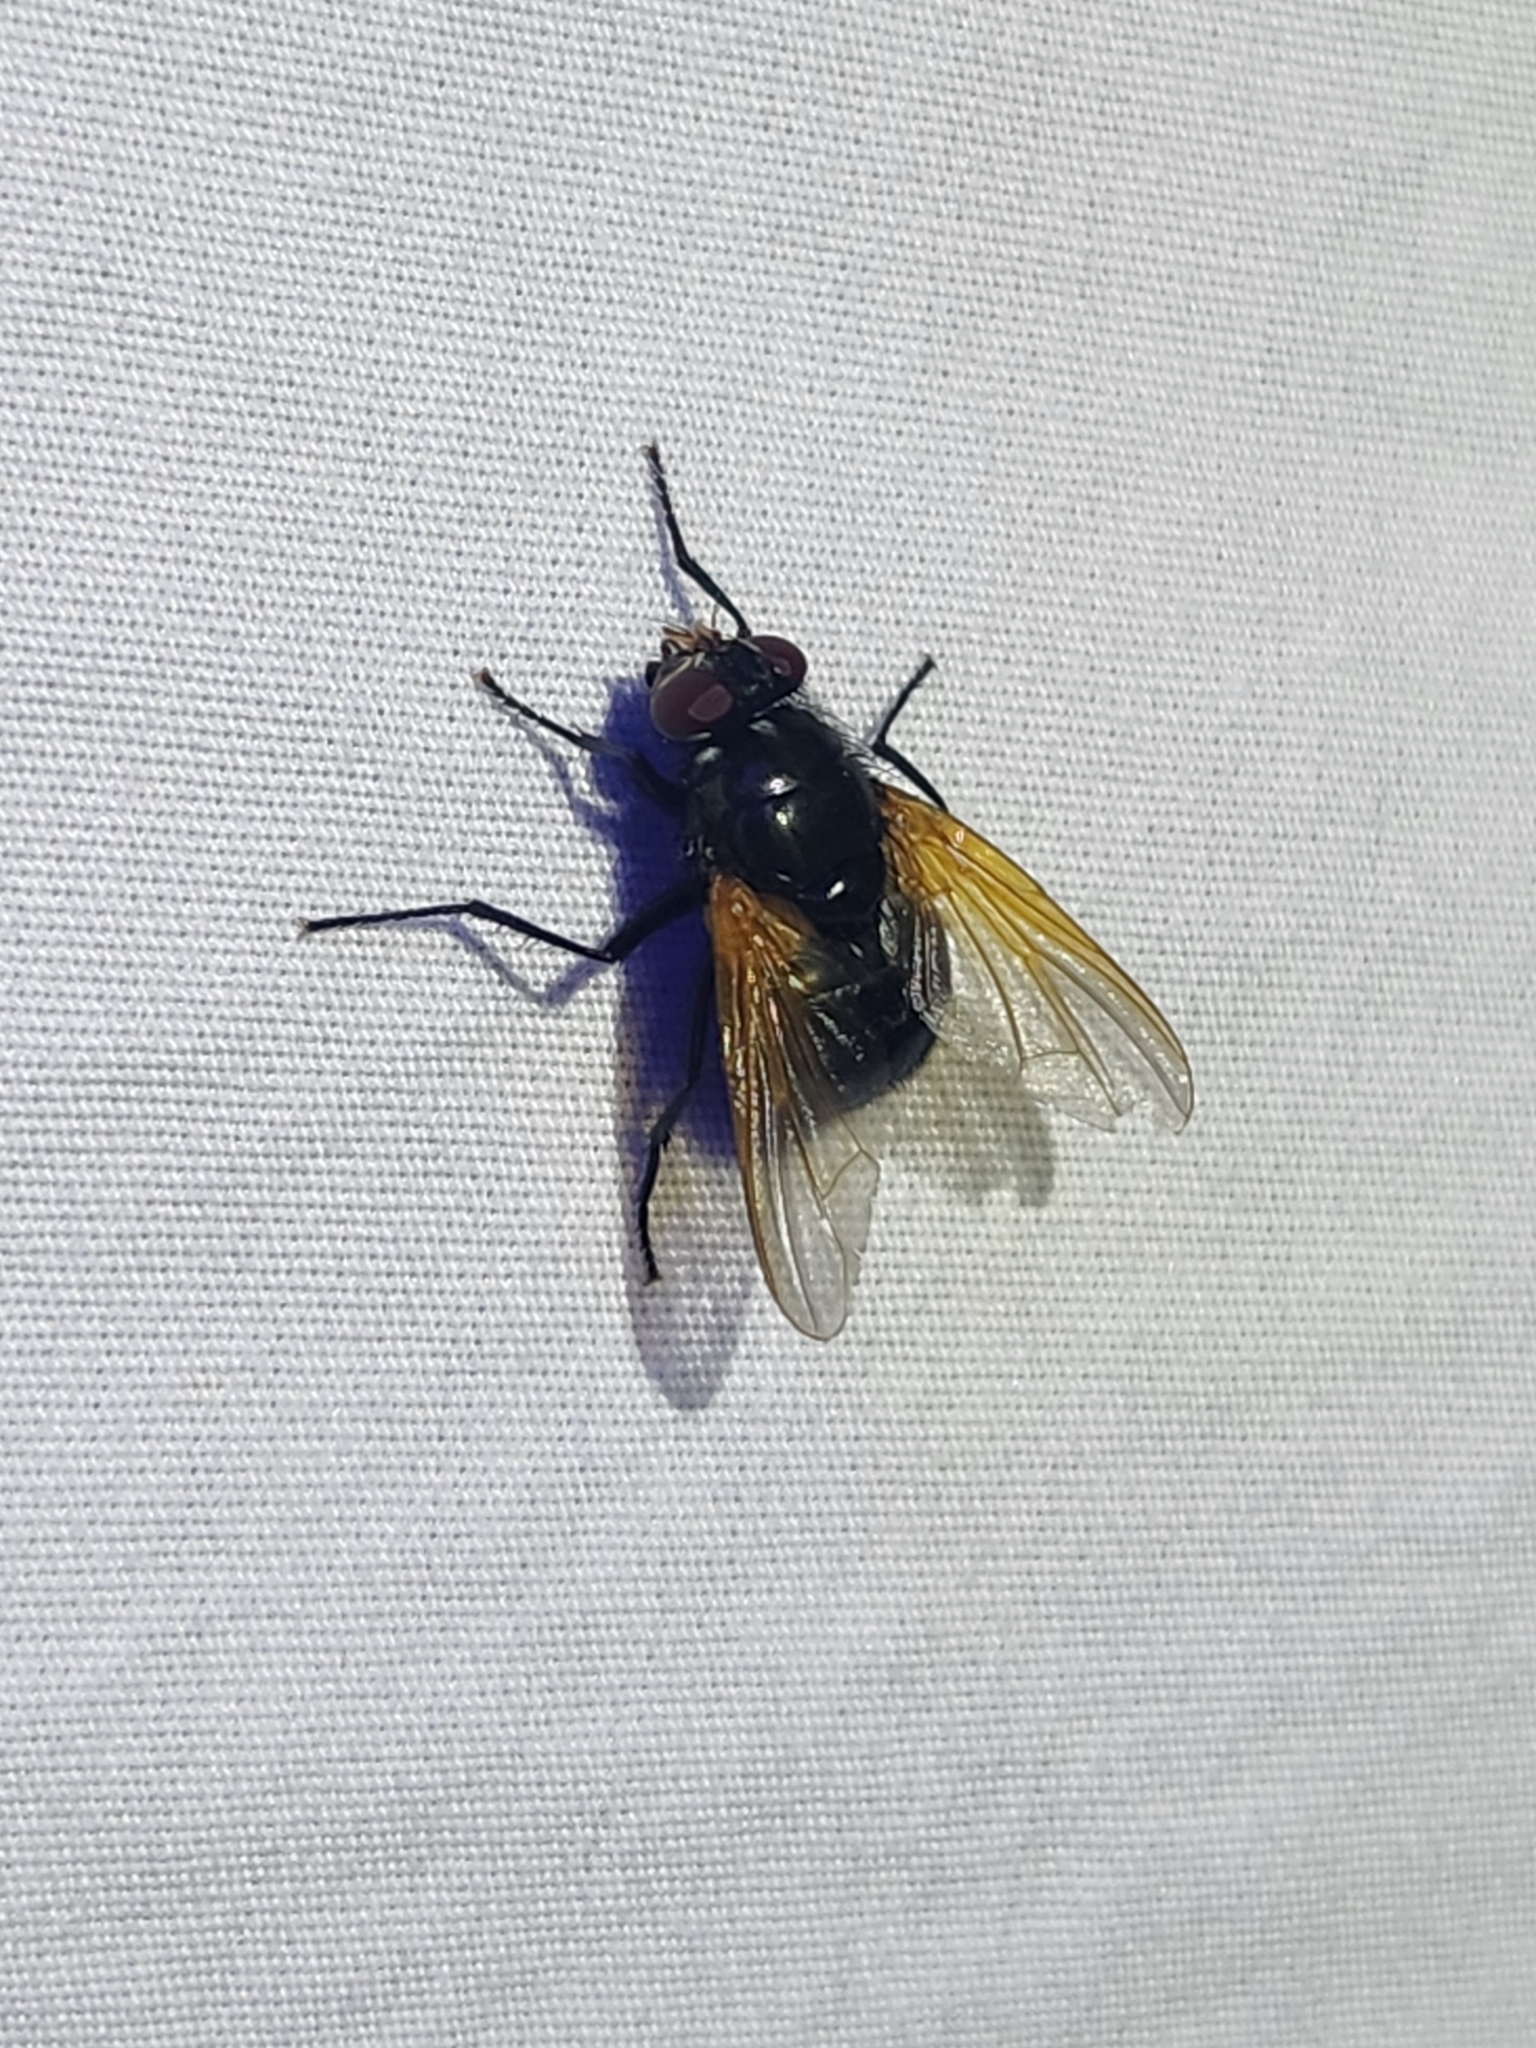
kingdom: Animalia
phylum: Arthropoda
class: Insecta
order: Diptera
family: Muscidae
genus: Mesembrina
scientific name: Mesembrina latreillii
